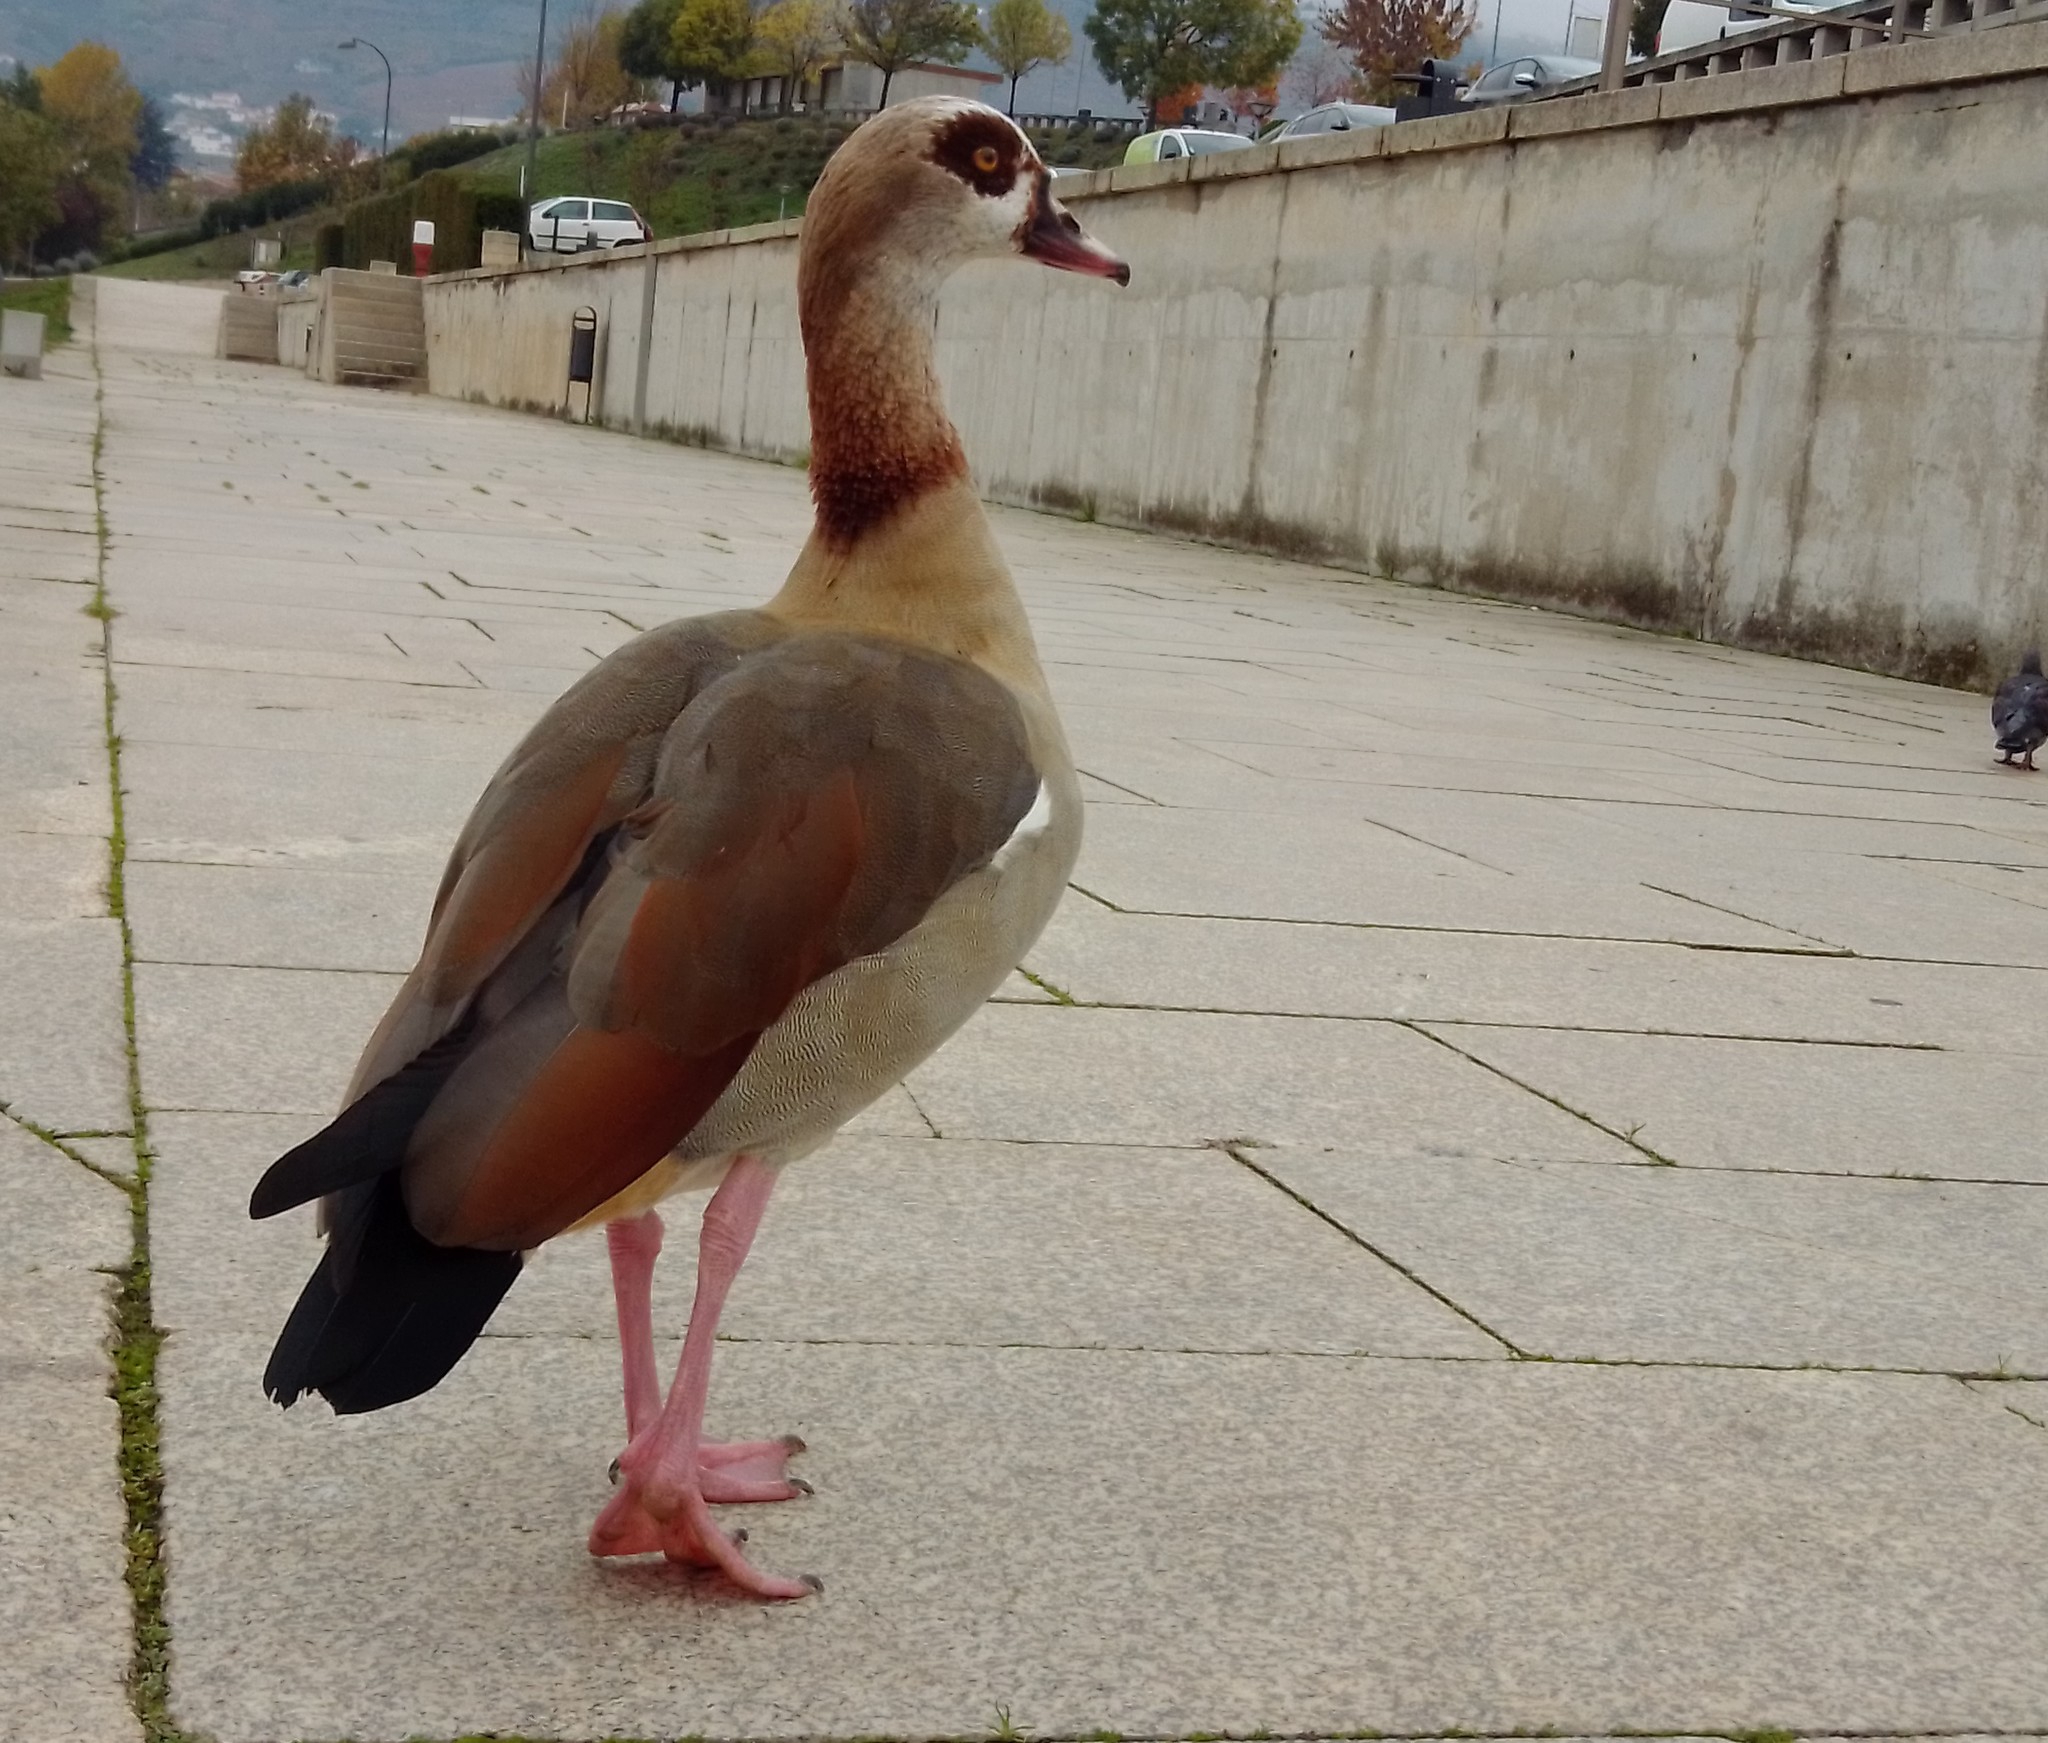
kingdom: Animalia
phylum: Chordata
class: Aves
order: Anseriformes
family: Anatidae
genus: Alopochen
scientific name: Alopochen aegyptiaca
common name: Egyptian goose
